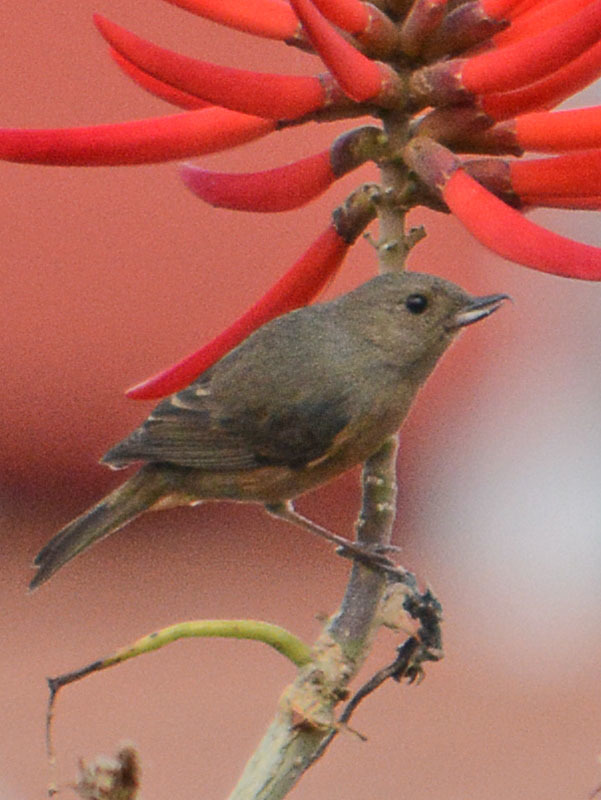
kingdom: Animalia
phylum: Chordata
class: Aves
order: Passeriformes
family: Thraupidae
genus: Diglossa
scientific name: Diglossa baritula
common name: Cinnamon-bellied flowerpiercer
